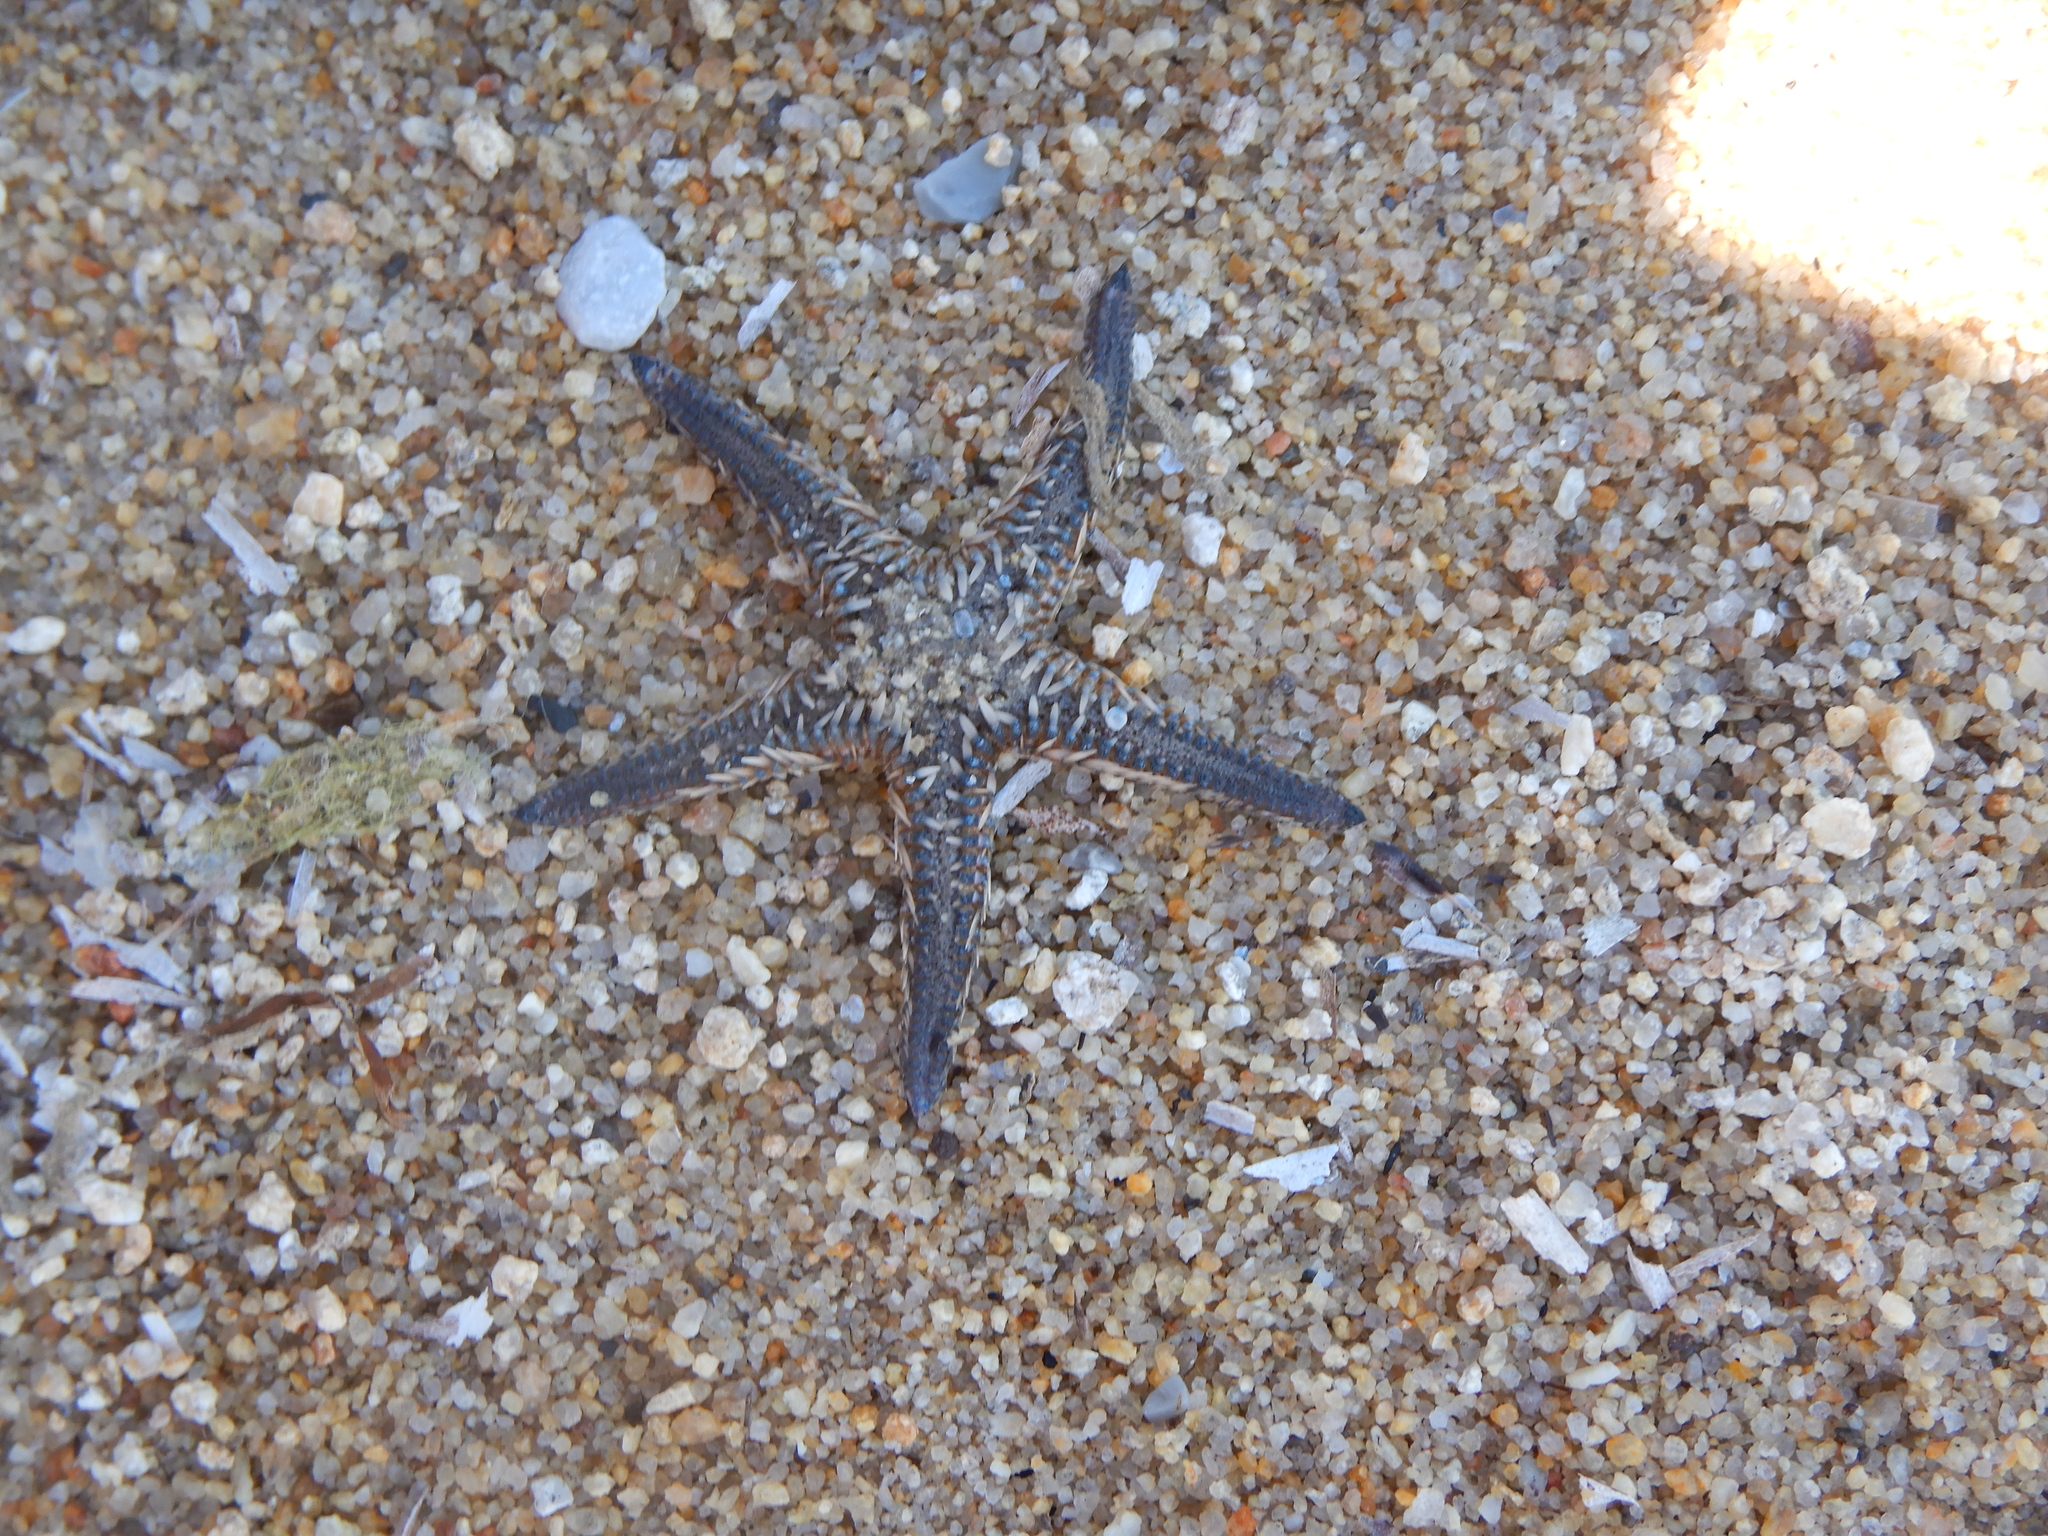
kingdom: Animalia
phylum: Echinodermata
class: Asteroidea
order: Paxillosida
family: Astropectinidae
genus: Astropecten
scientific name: Astropecten platyacanthus
